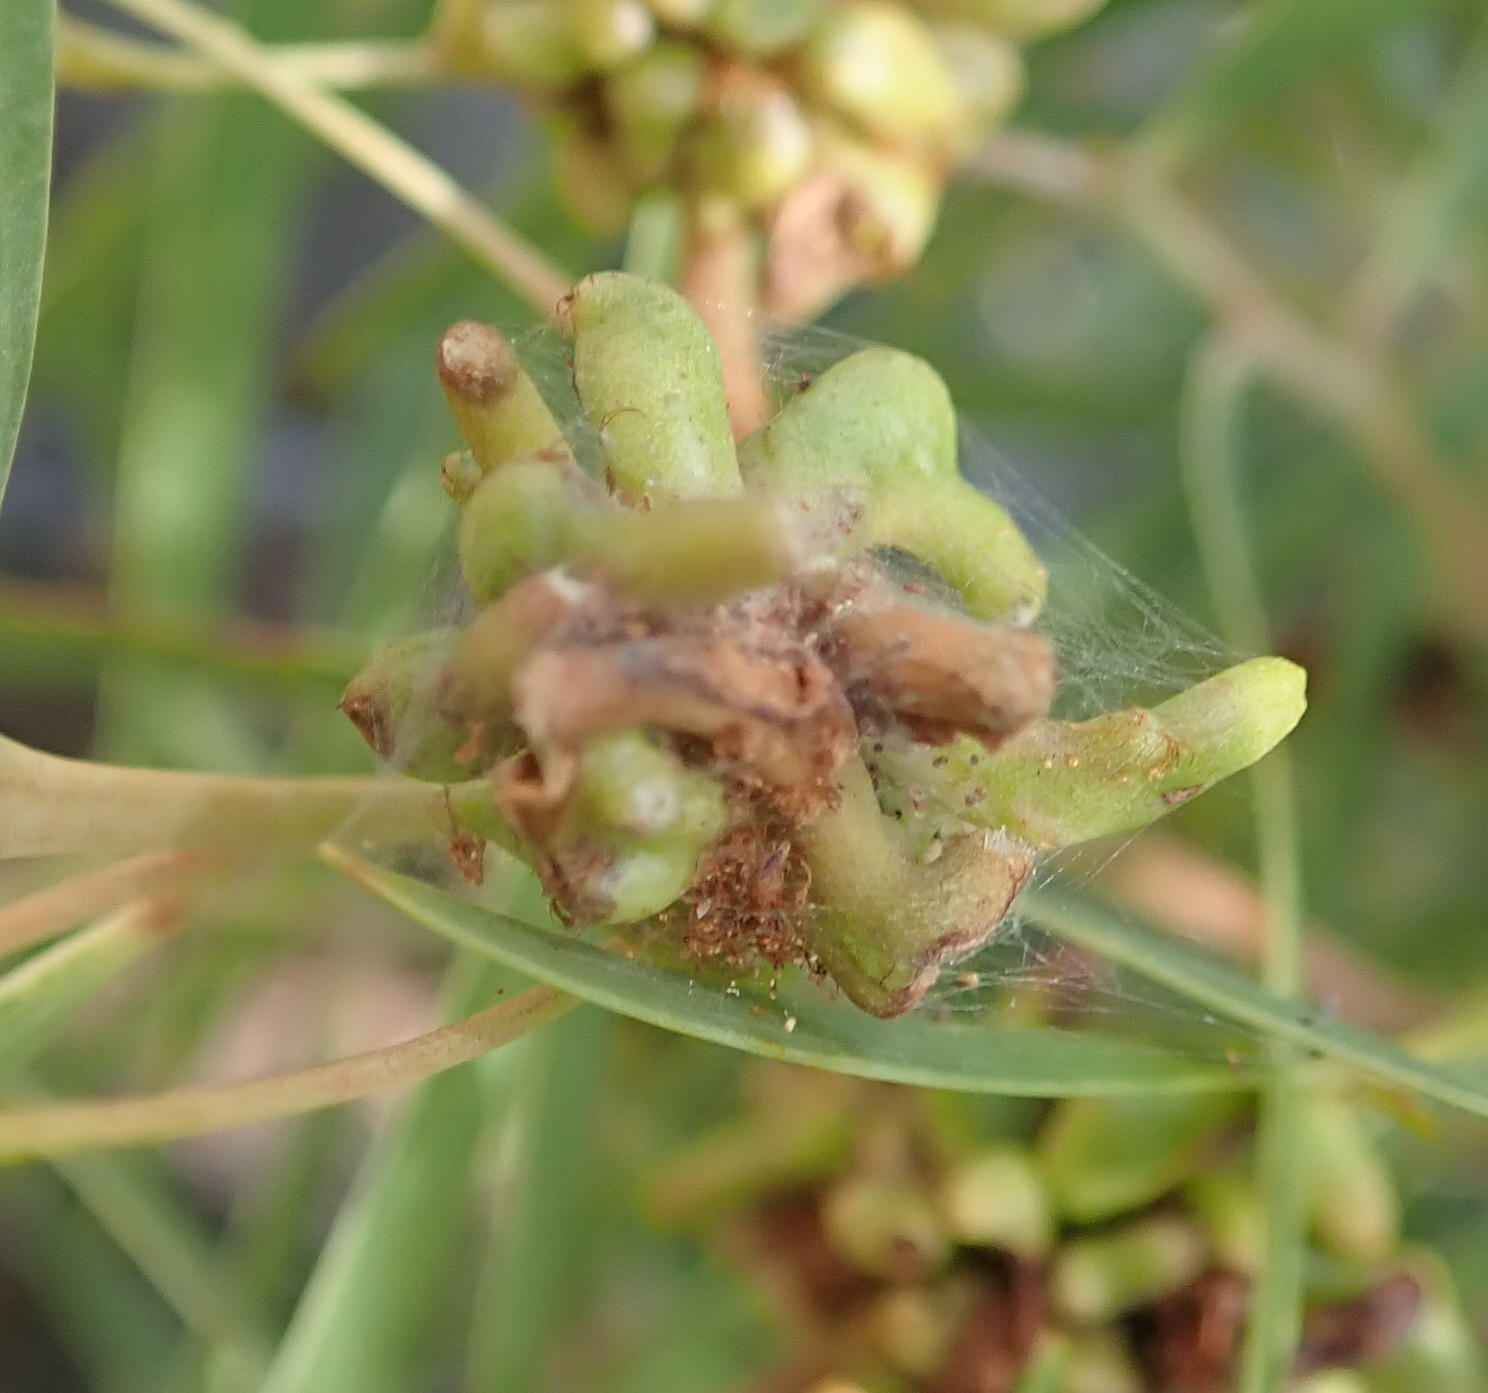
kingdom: Animalia
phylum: Arthropoda
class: Insecta
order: Diptera
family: Cecidomyiidae
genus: Dasineura
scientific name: Dasineura dielsi
